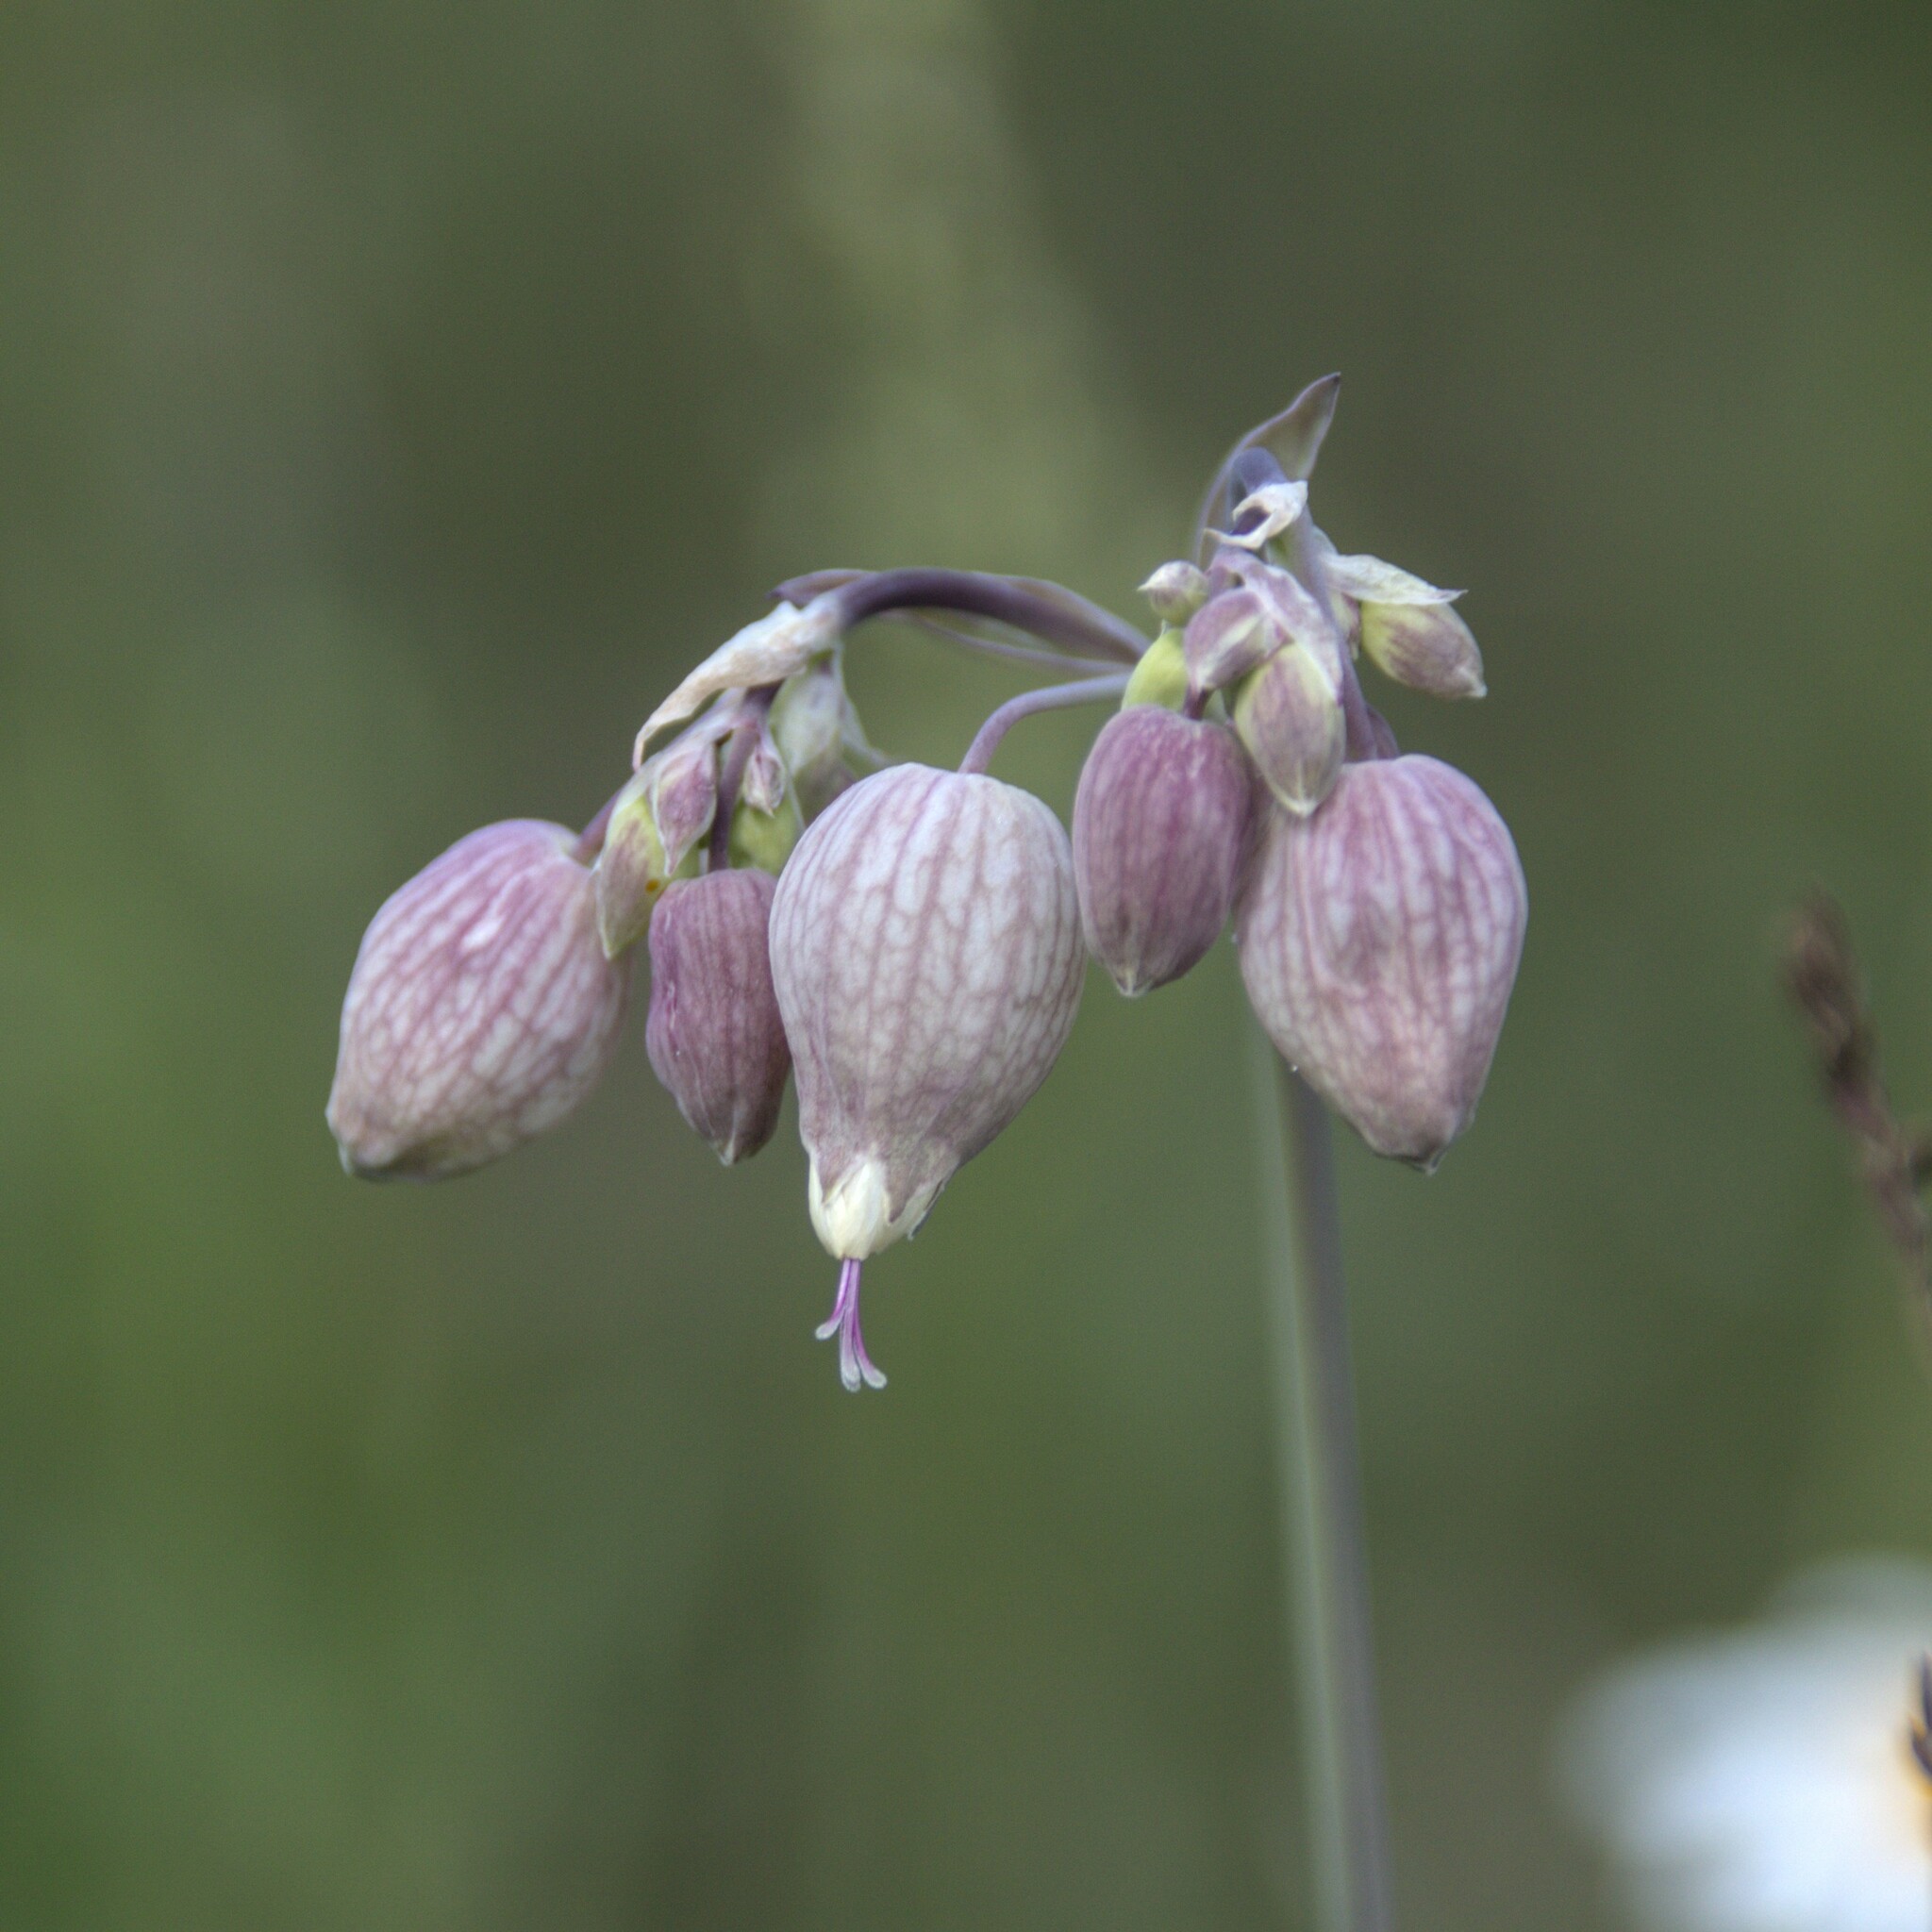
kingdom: Plantae
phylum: Tracheophyta
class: Magnoliopsida
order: Caryophyllales
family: Caryophyllaceae
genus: Silene
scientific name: Silene vulgaris
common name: Bladder campion
